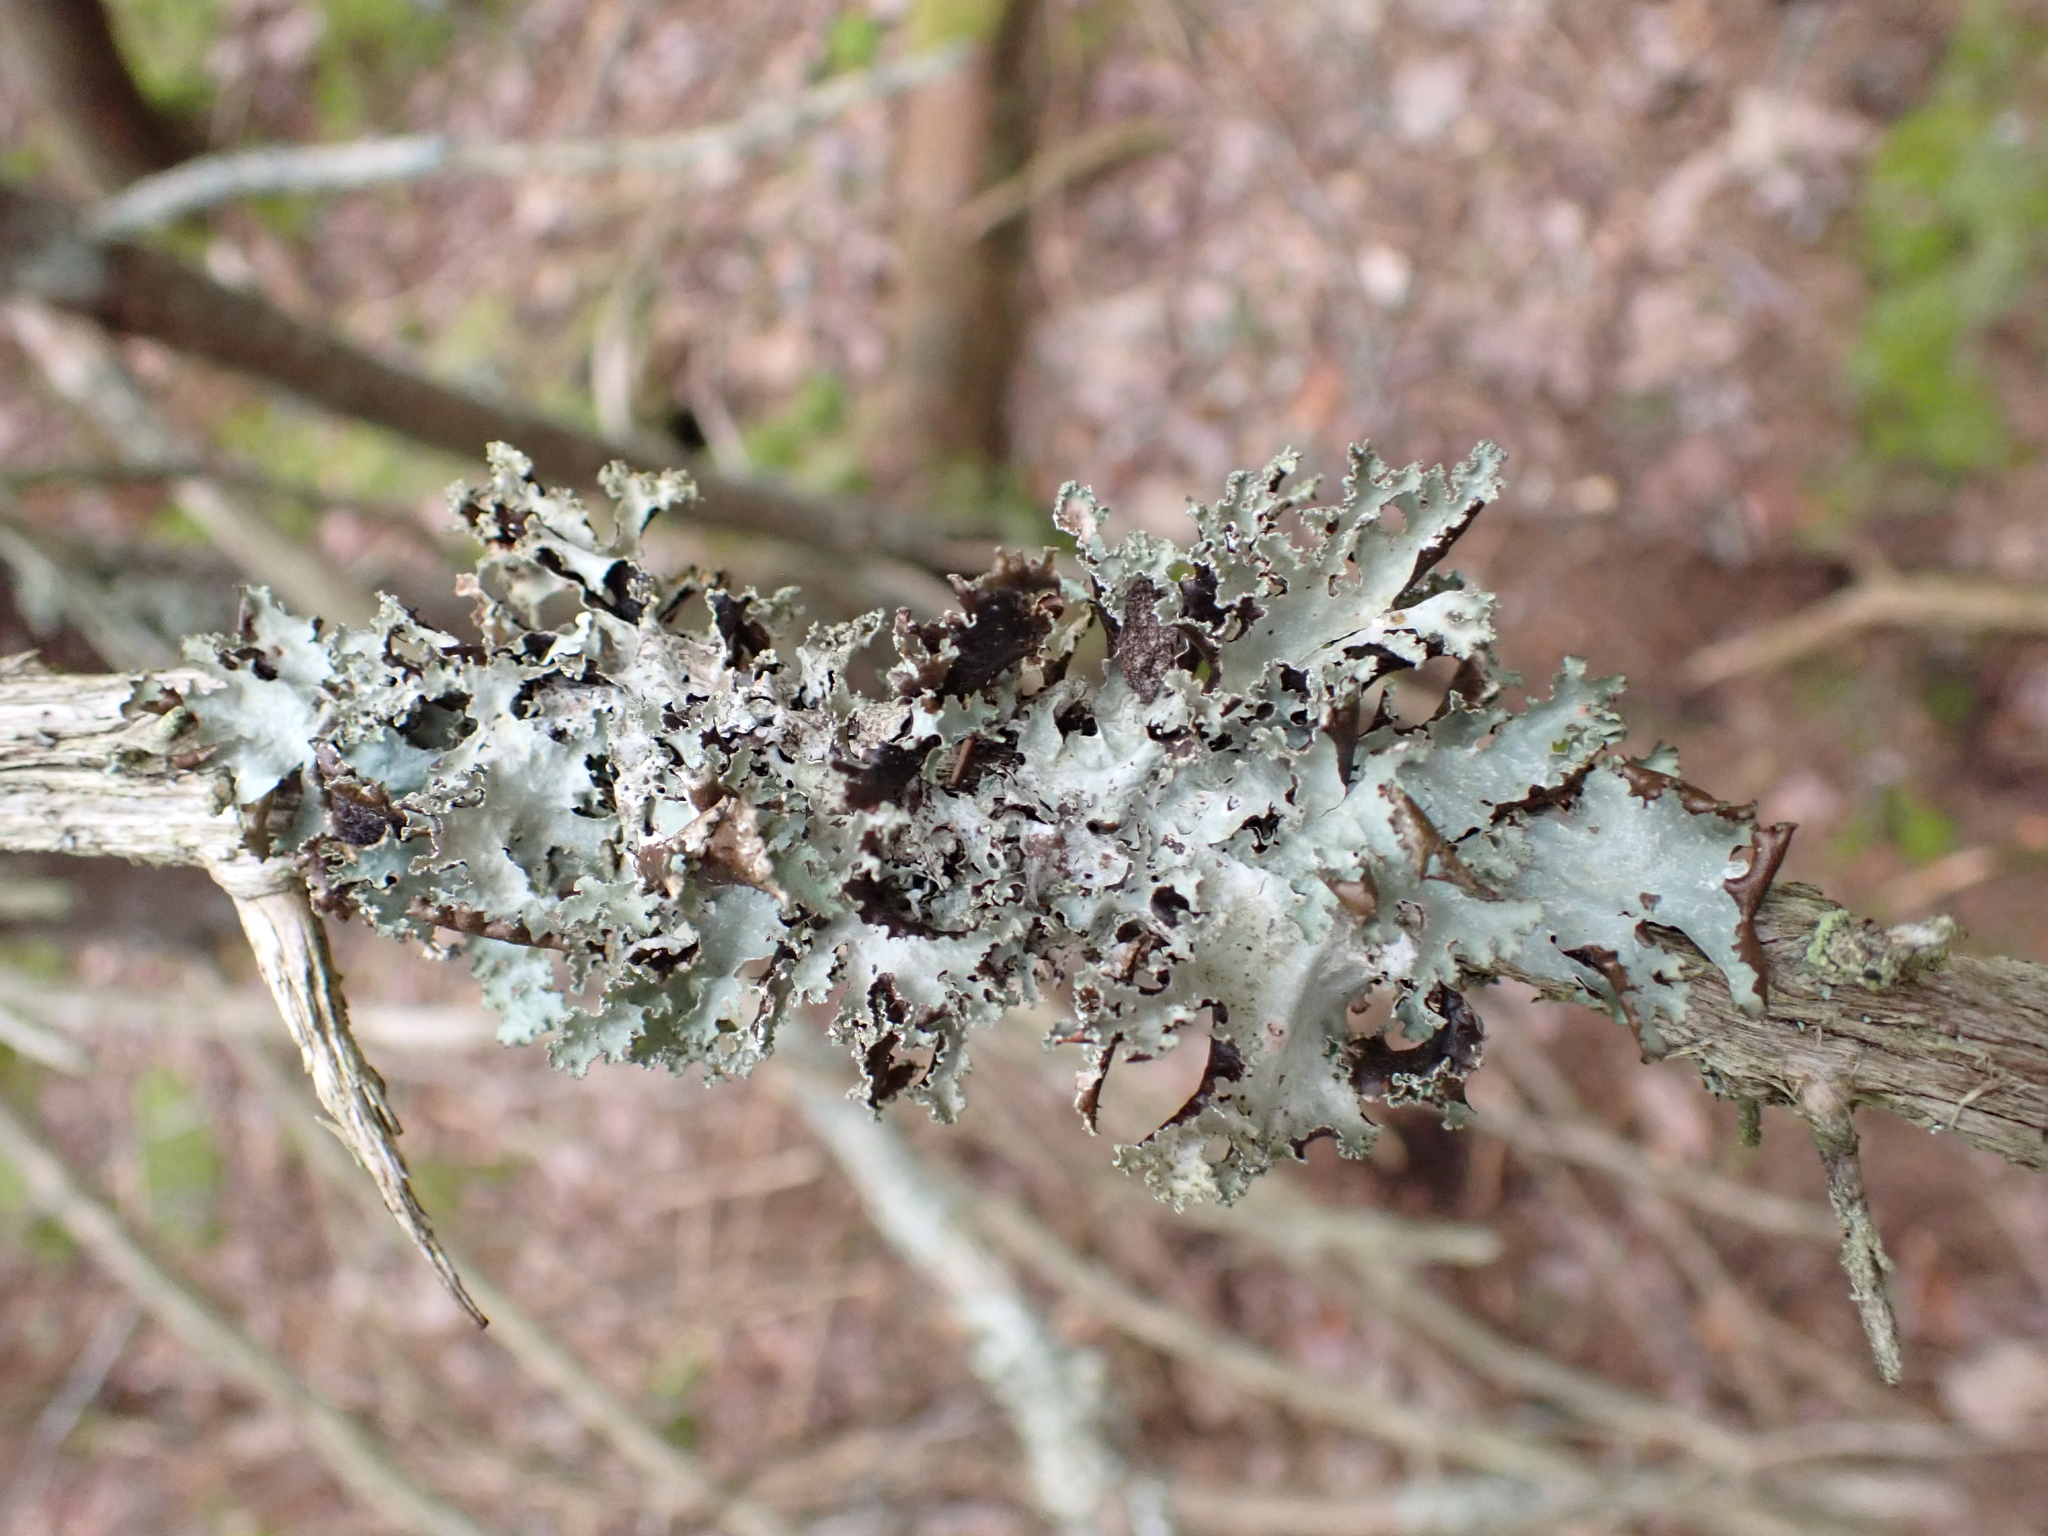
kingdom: Fungi
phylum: Ascomycota
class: Lecanoromycetes
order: Lecanorales
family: Parmeliaceae
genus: Platismatia
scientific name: Platismatia glauca
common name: Varied rag lichen
